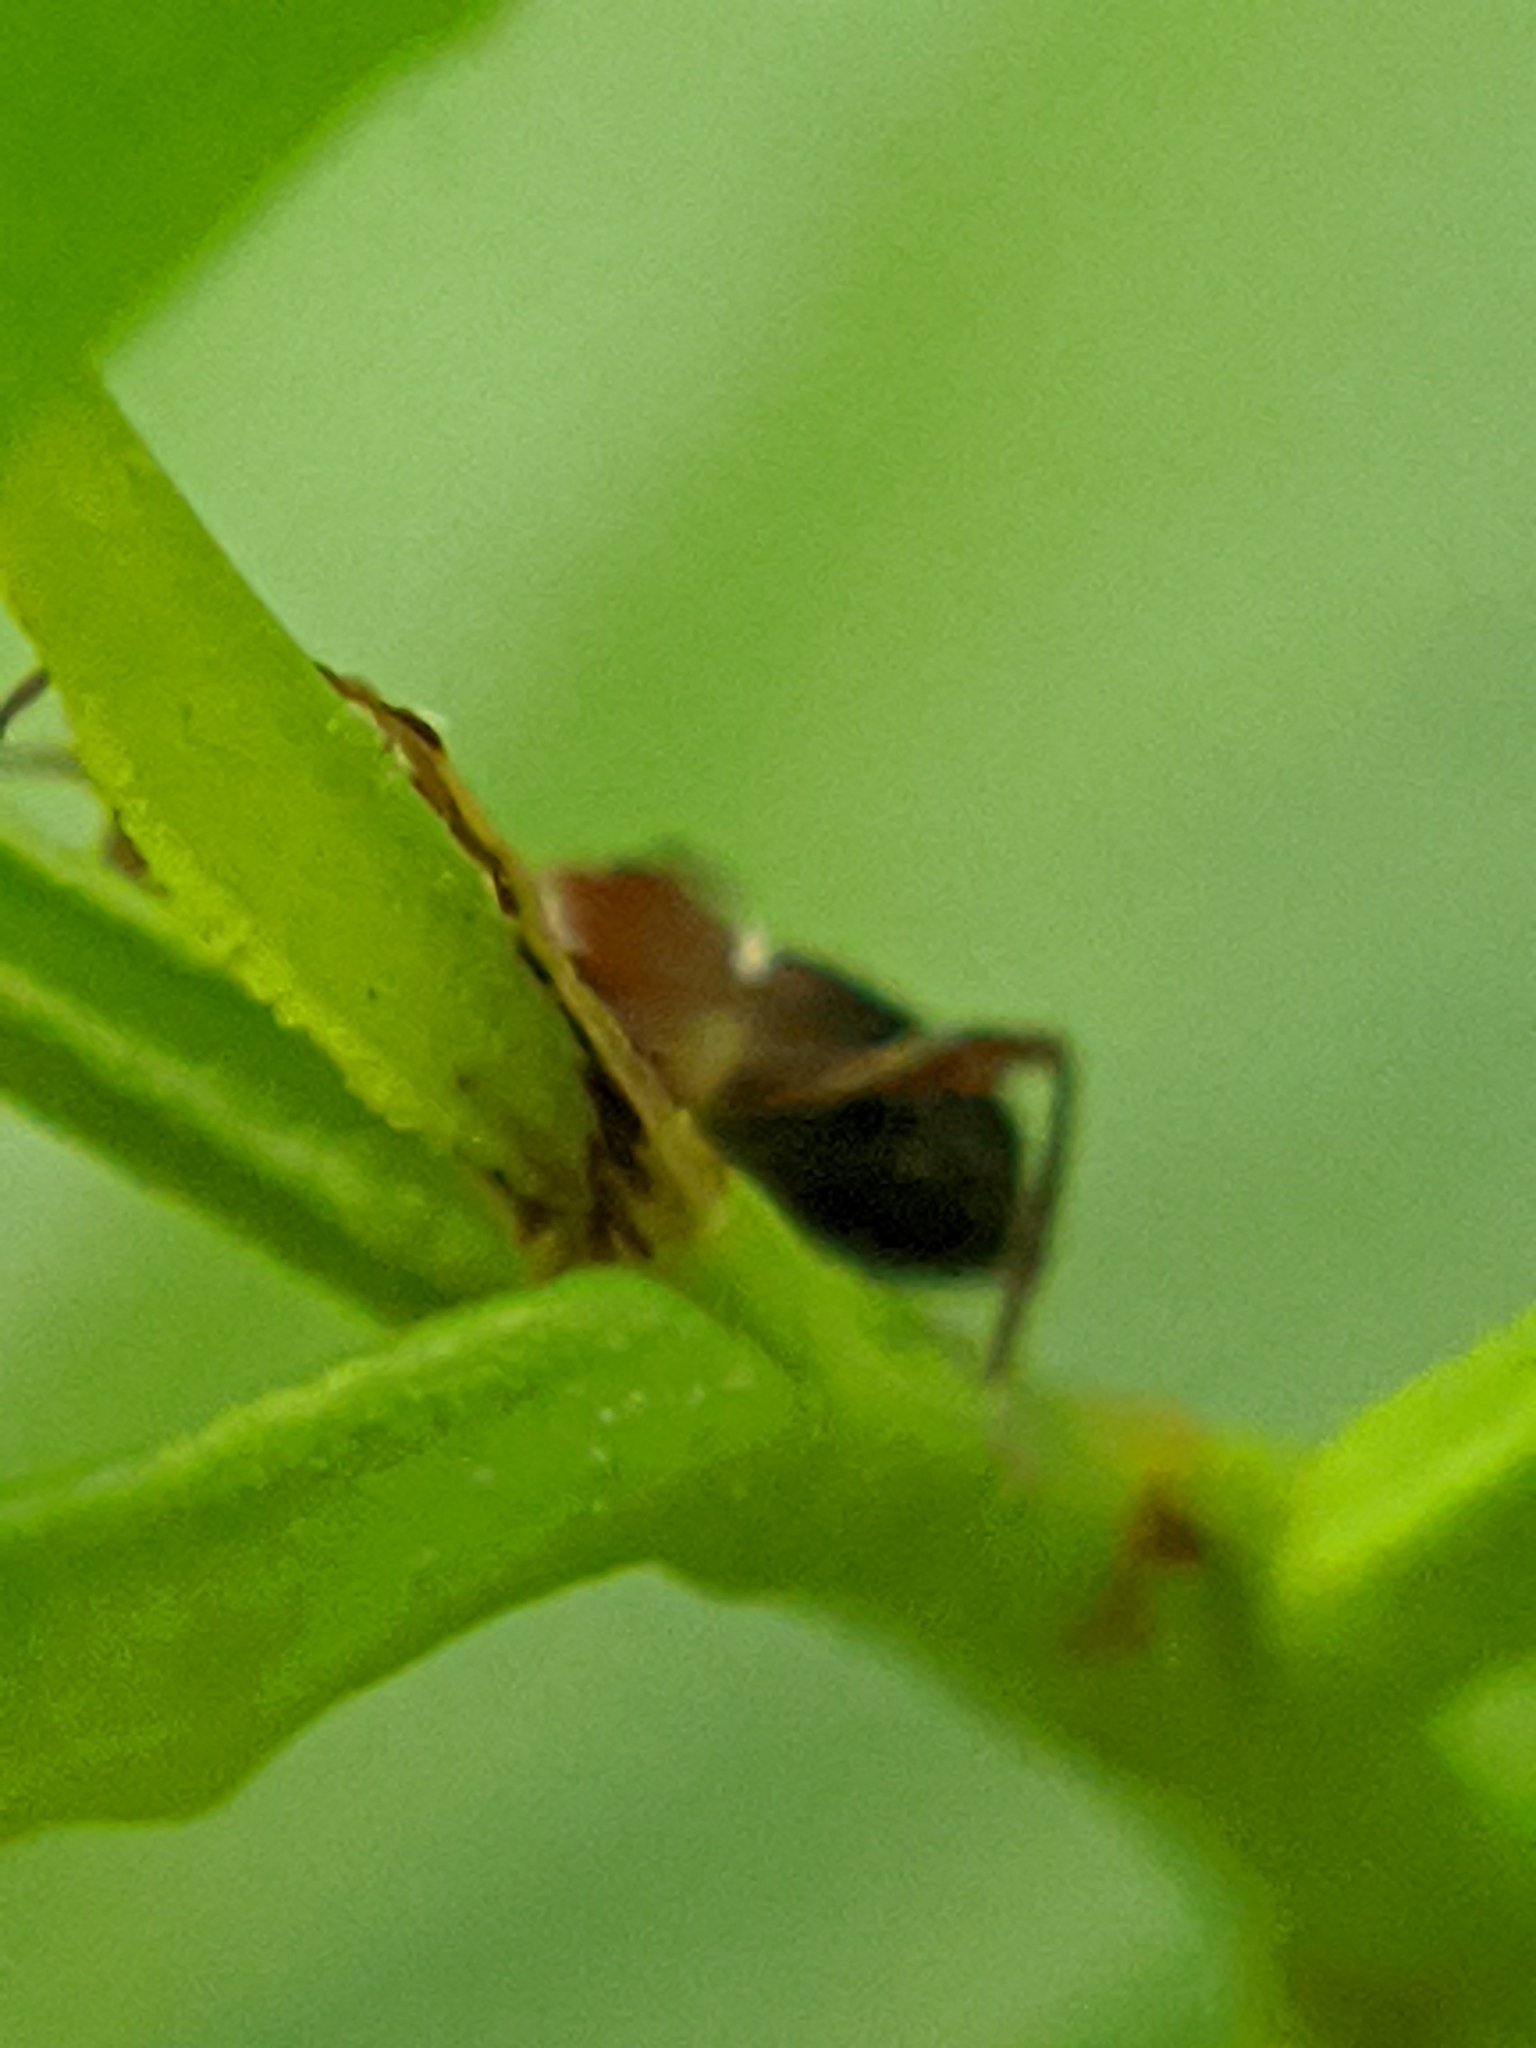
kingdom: Animalia
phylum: Arthropoda
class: Insecta
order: Coleoptera
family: Cerambycidae
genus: Euderces
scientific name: Euderces reichei
